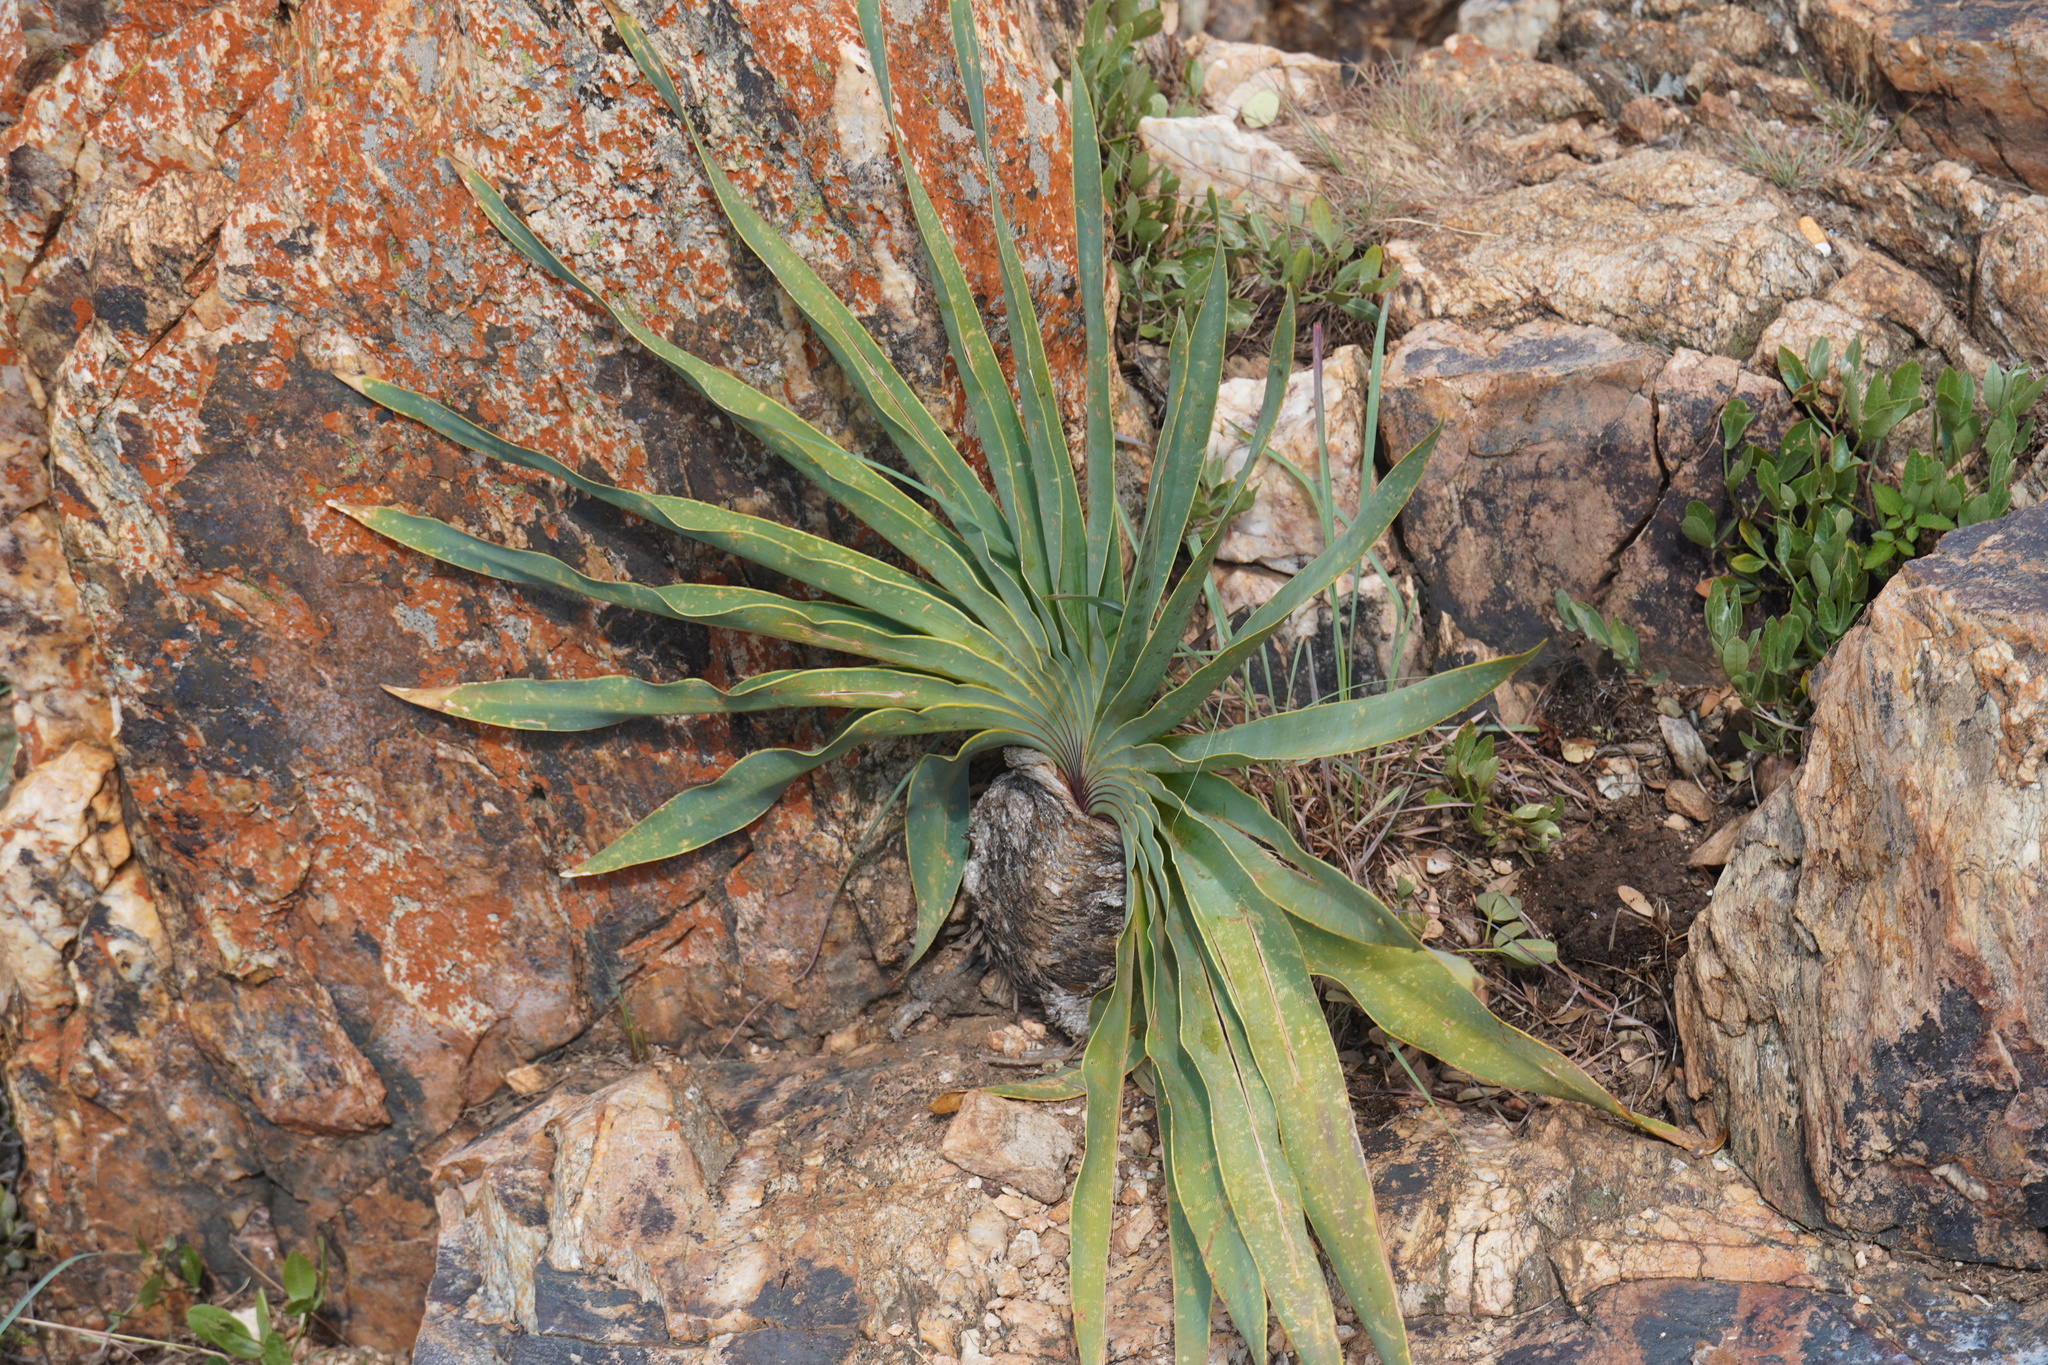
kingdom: Plantae
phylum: Tracheophyta
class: Liliopsida
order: Asparagales
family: Amaryllidaceae
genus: Boophone
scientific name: Boophone disticha
